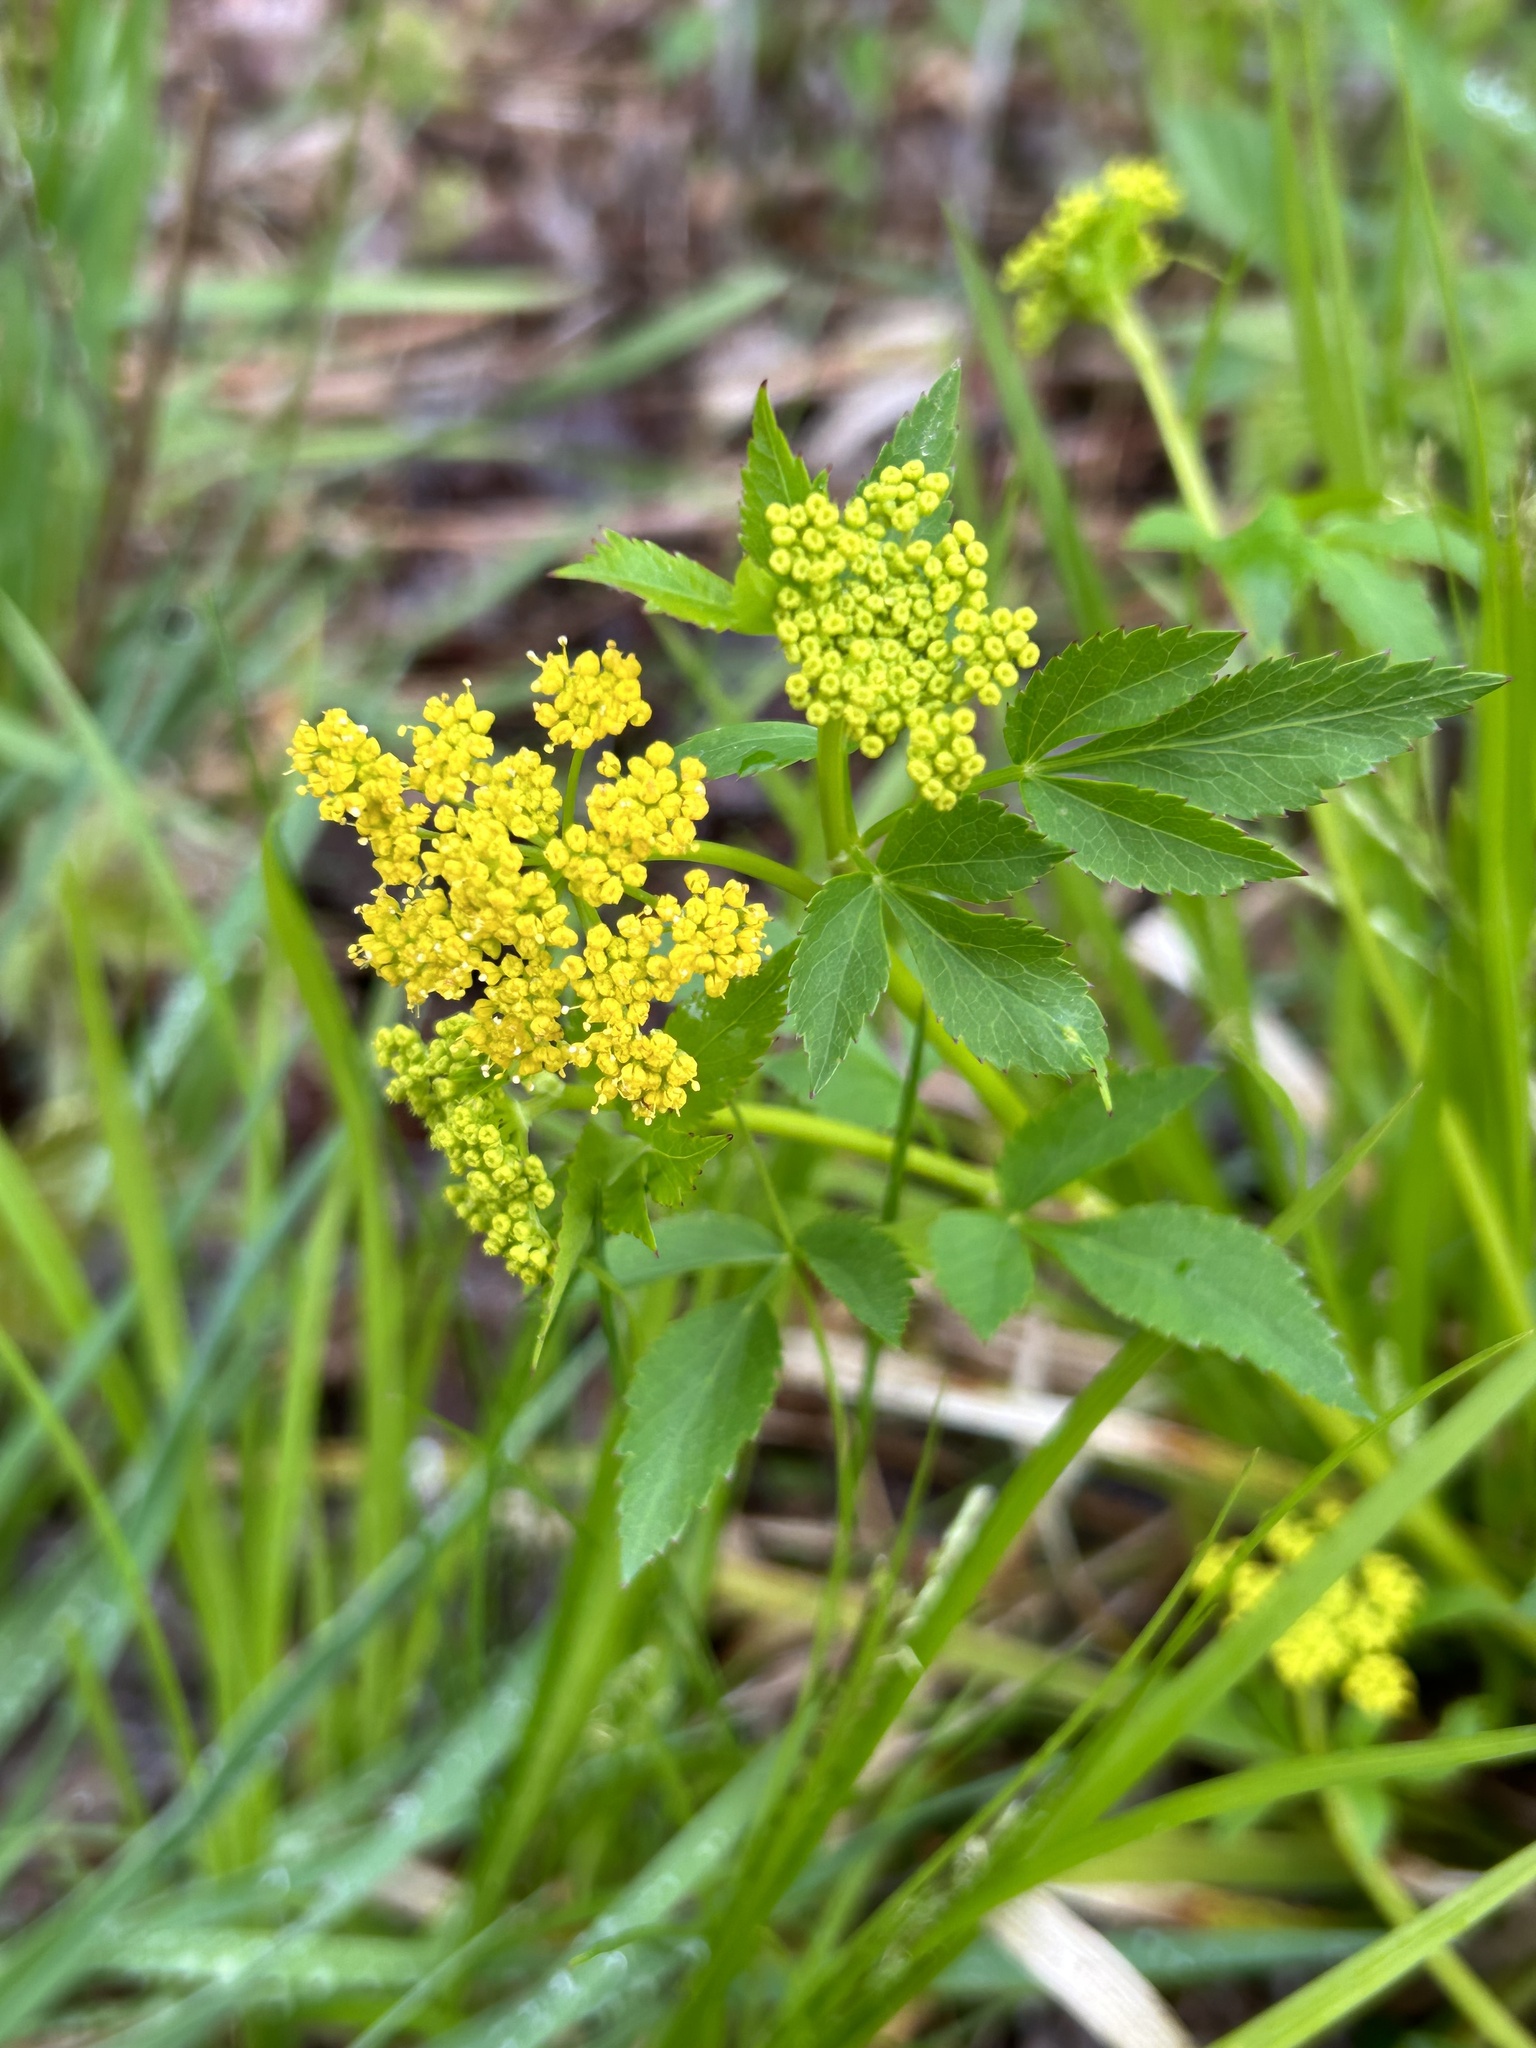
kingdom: Plantae
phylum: Tracheophyta
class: Magnoliopsida
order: Apiales
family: Apiaceae
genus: Zizia
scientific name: Zizia aurea
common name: Golden alexanders
